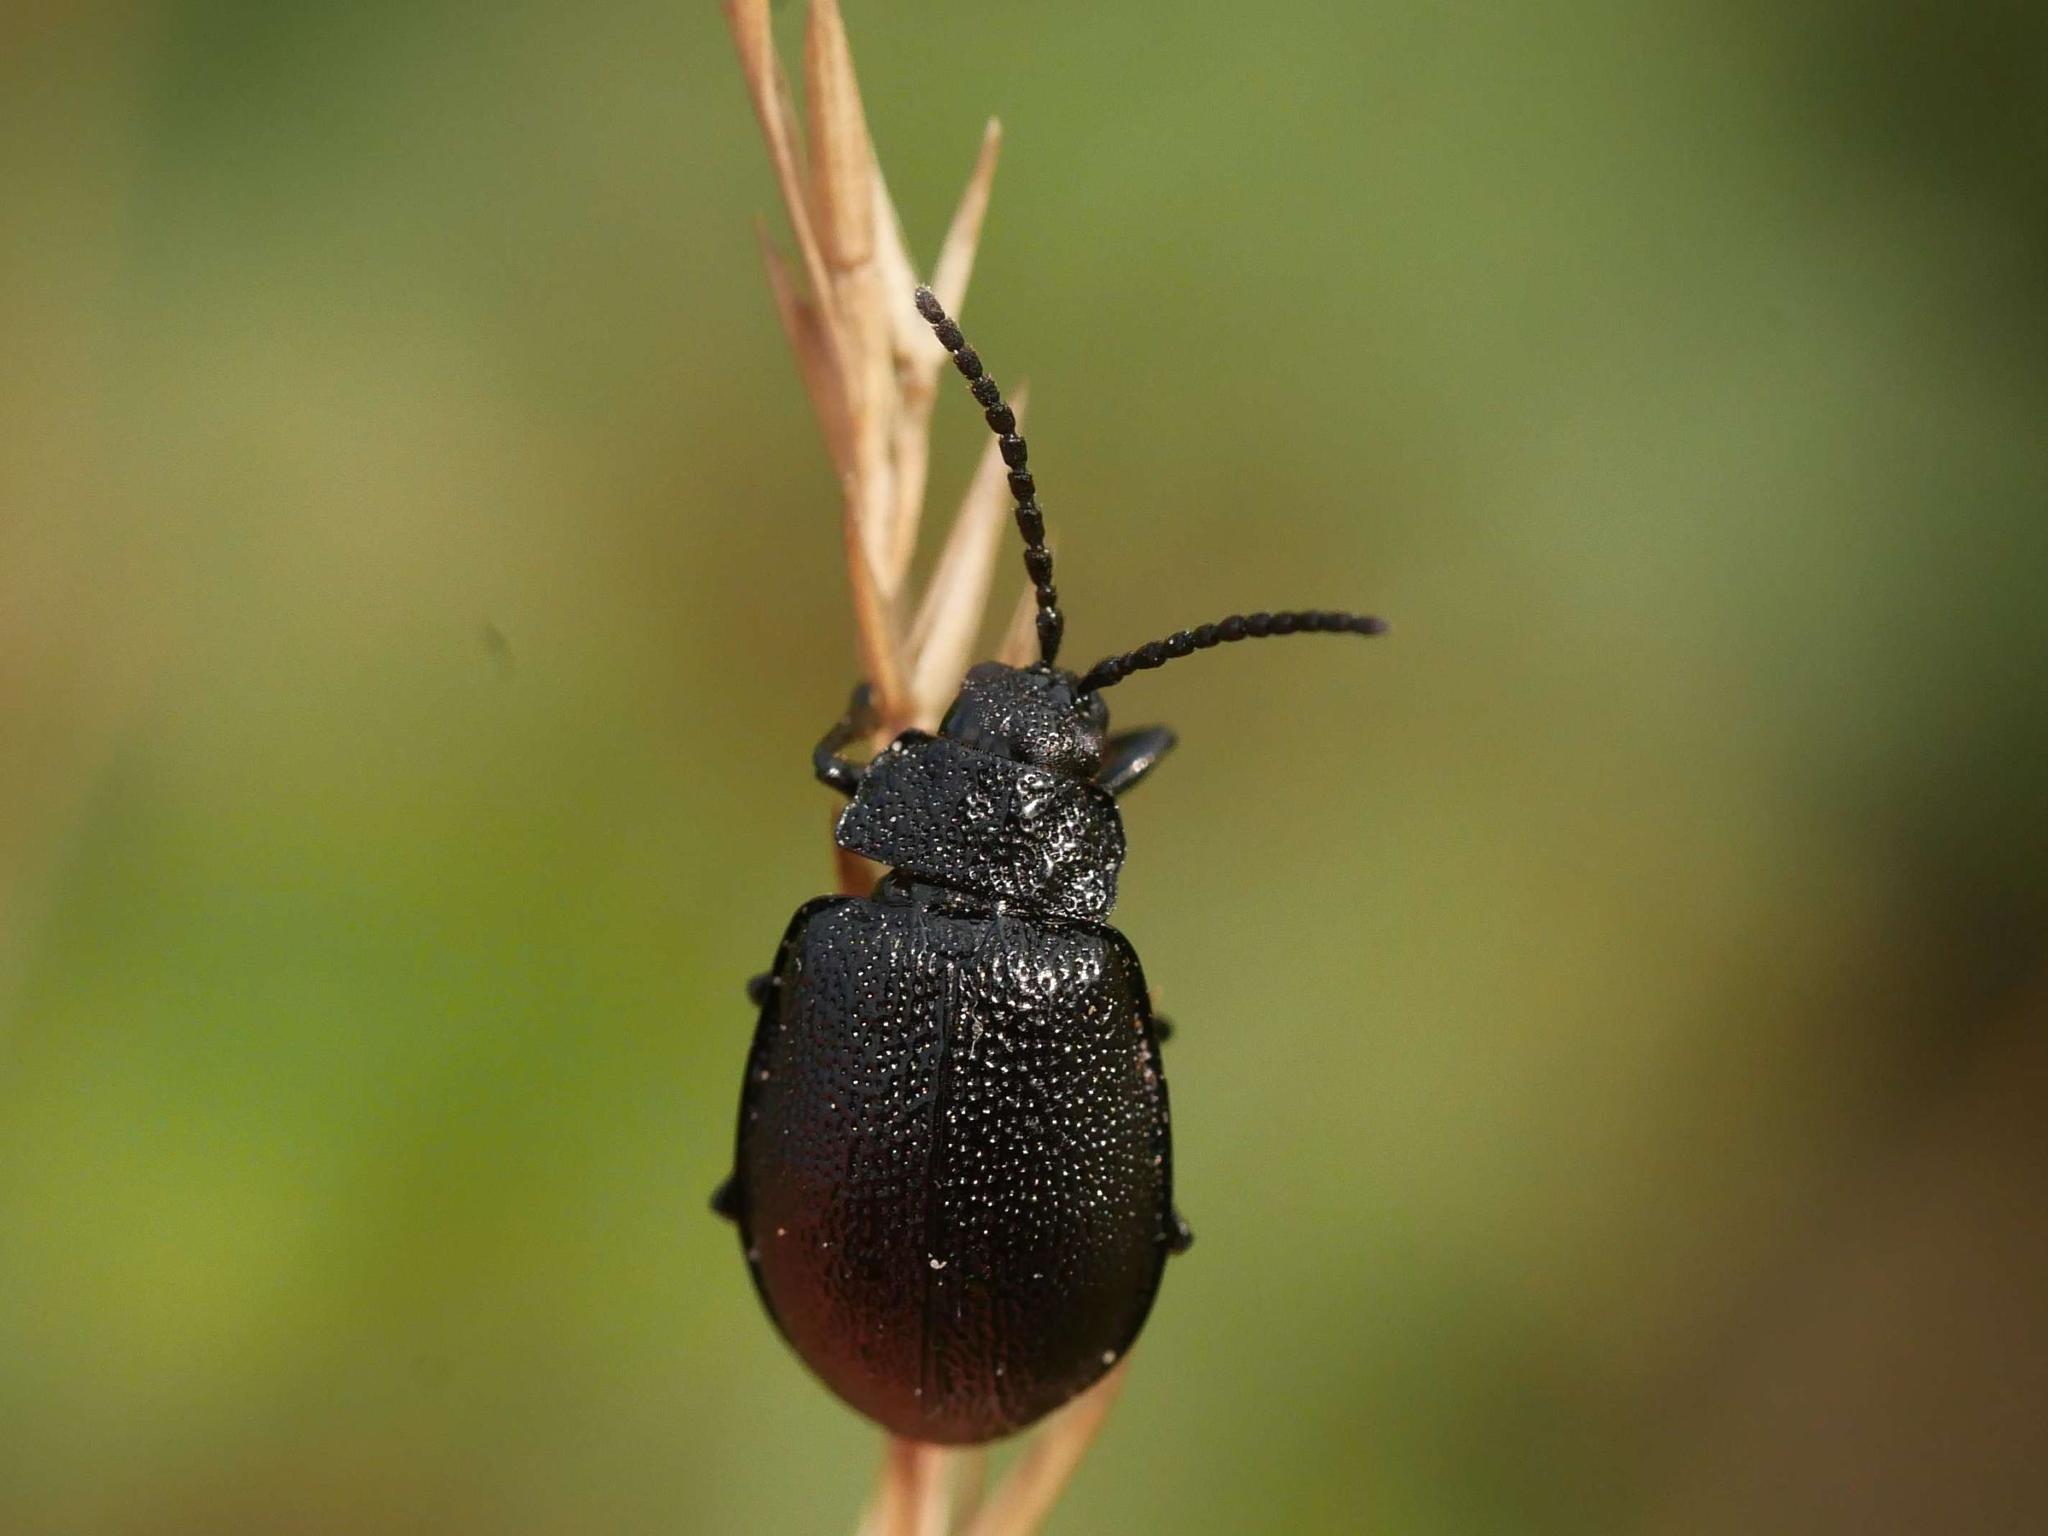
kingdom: Animalia
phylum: Arthropoda
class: Insecta
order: Coleoptera
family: Chrysomelidae
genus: Galeruca
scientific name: Galeruca tanaceti
